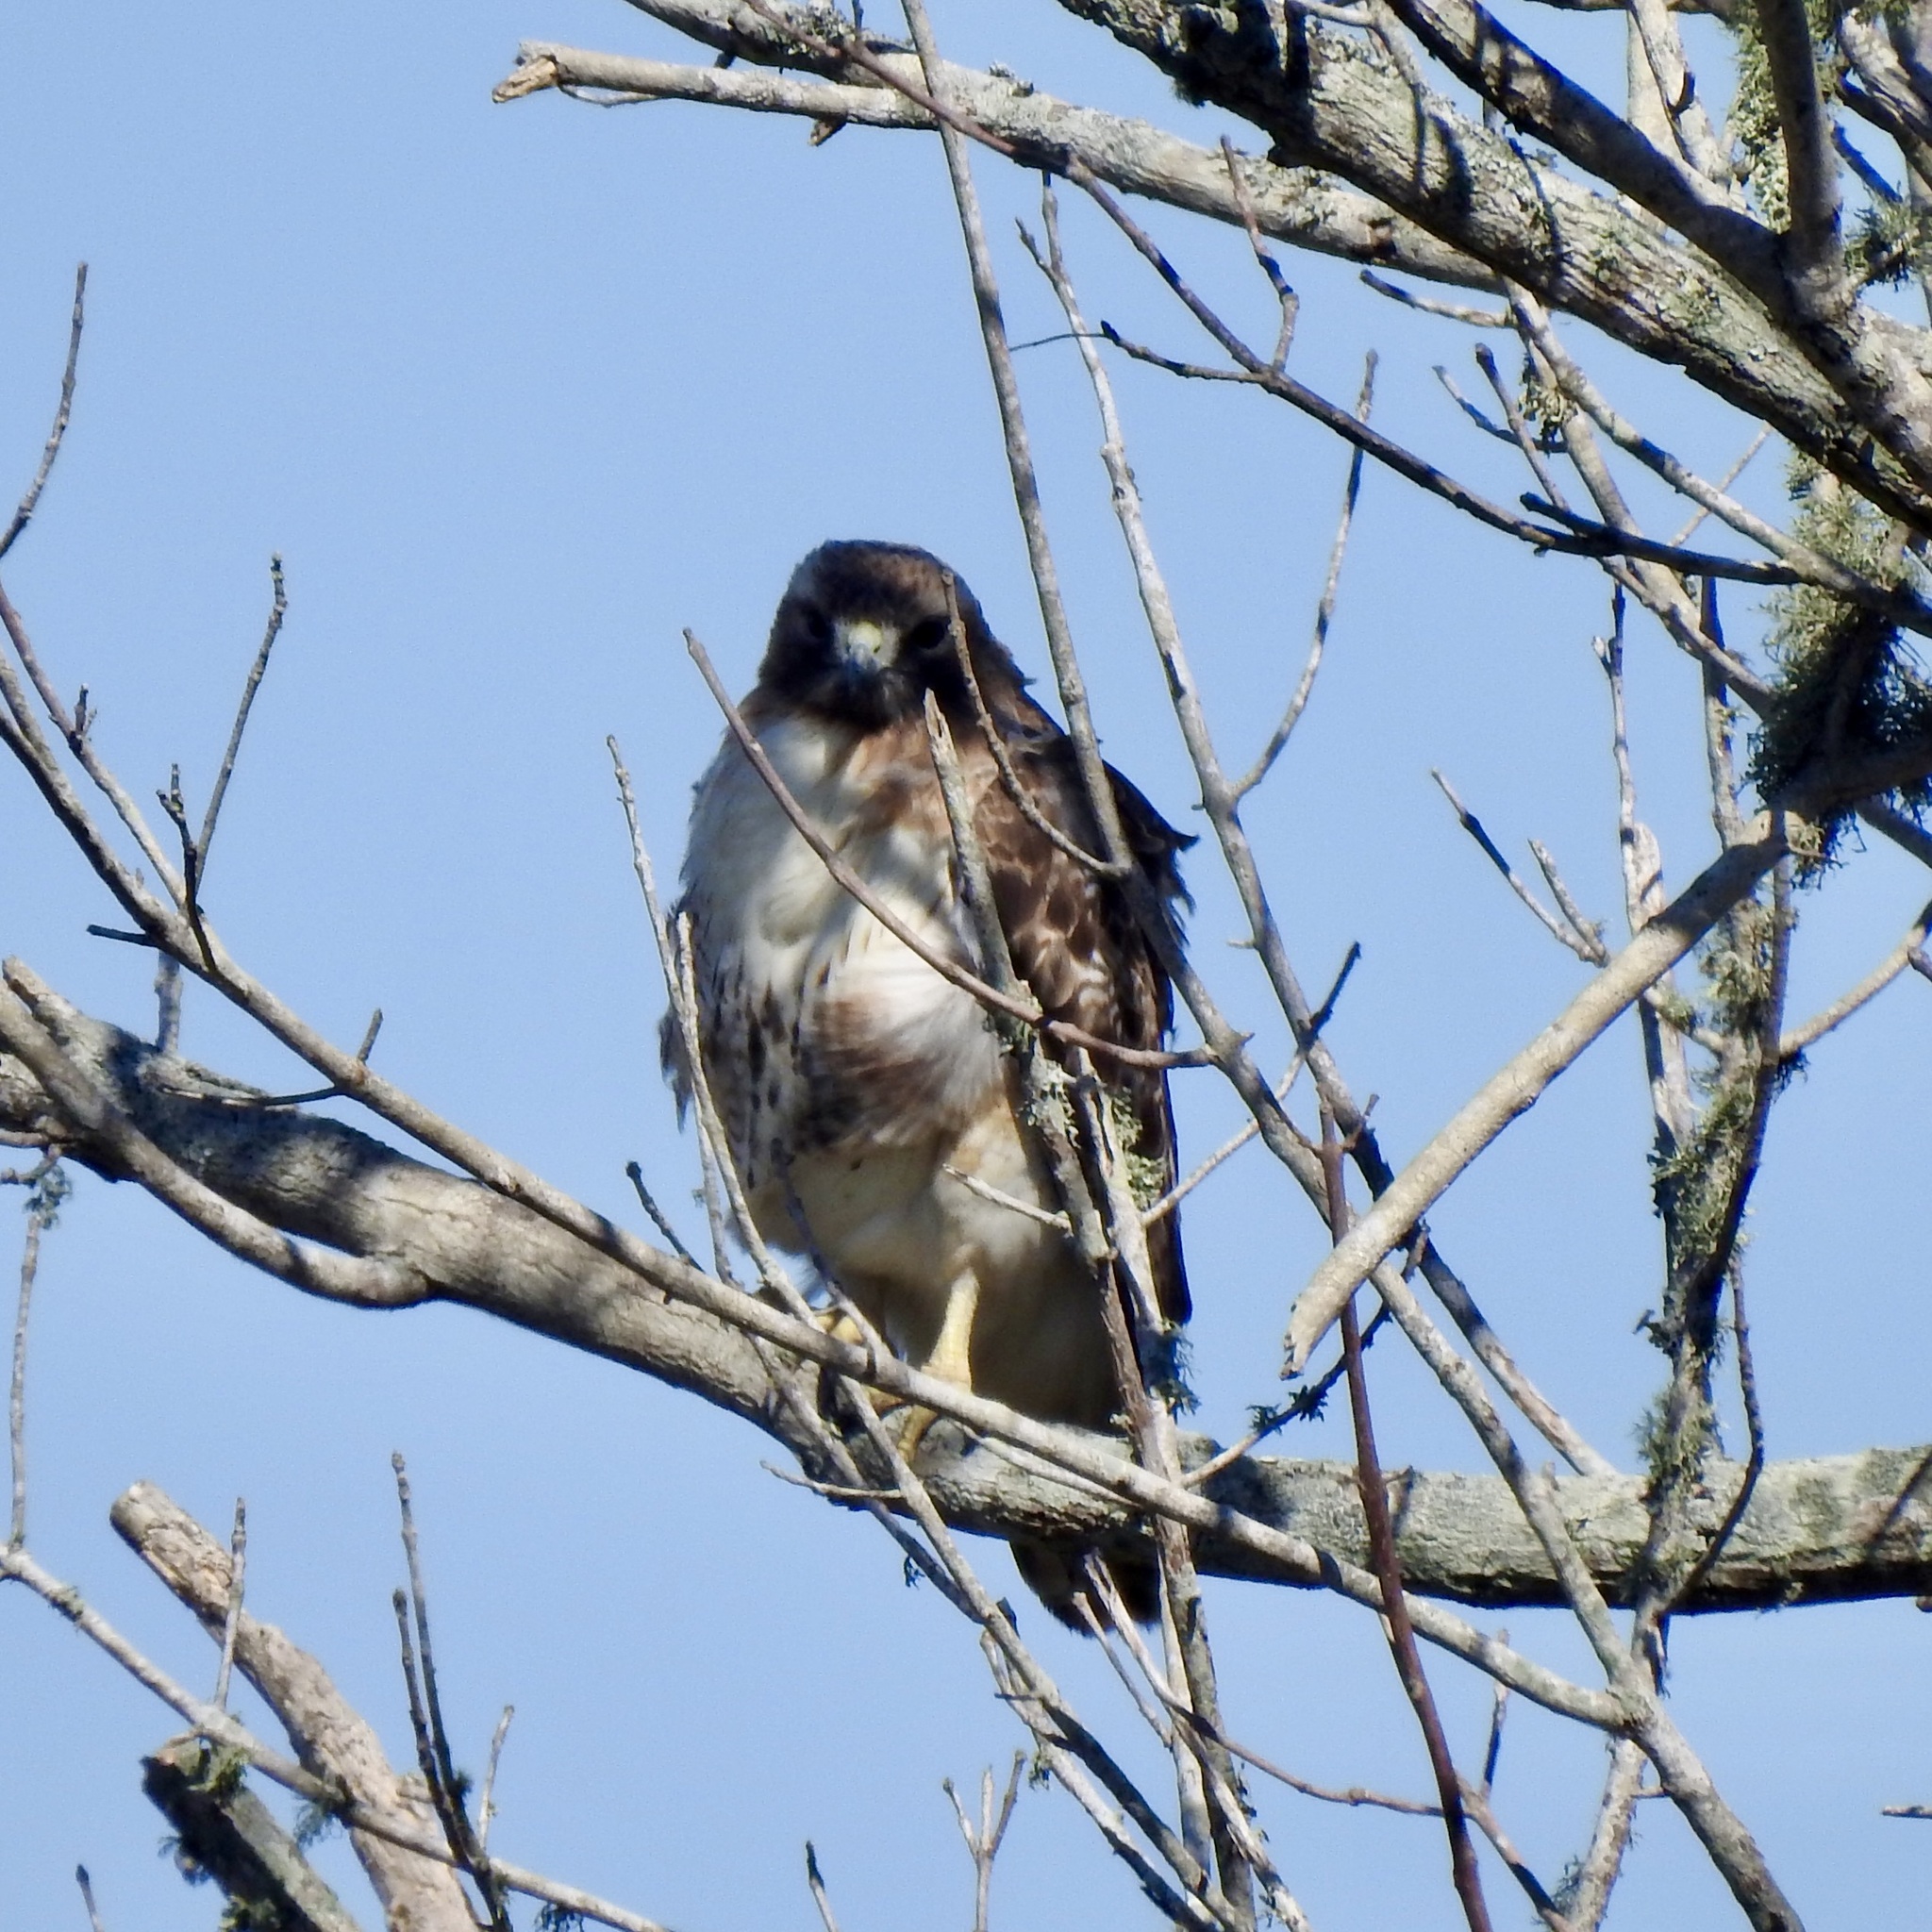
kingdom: Animalia
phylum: Chordata
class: Aves
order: Accipitriformes
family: Accipitridae
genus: Buteo
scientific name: Buteo jamaicensis
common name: Red-tailed hawk
